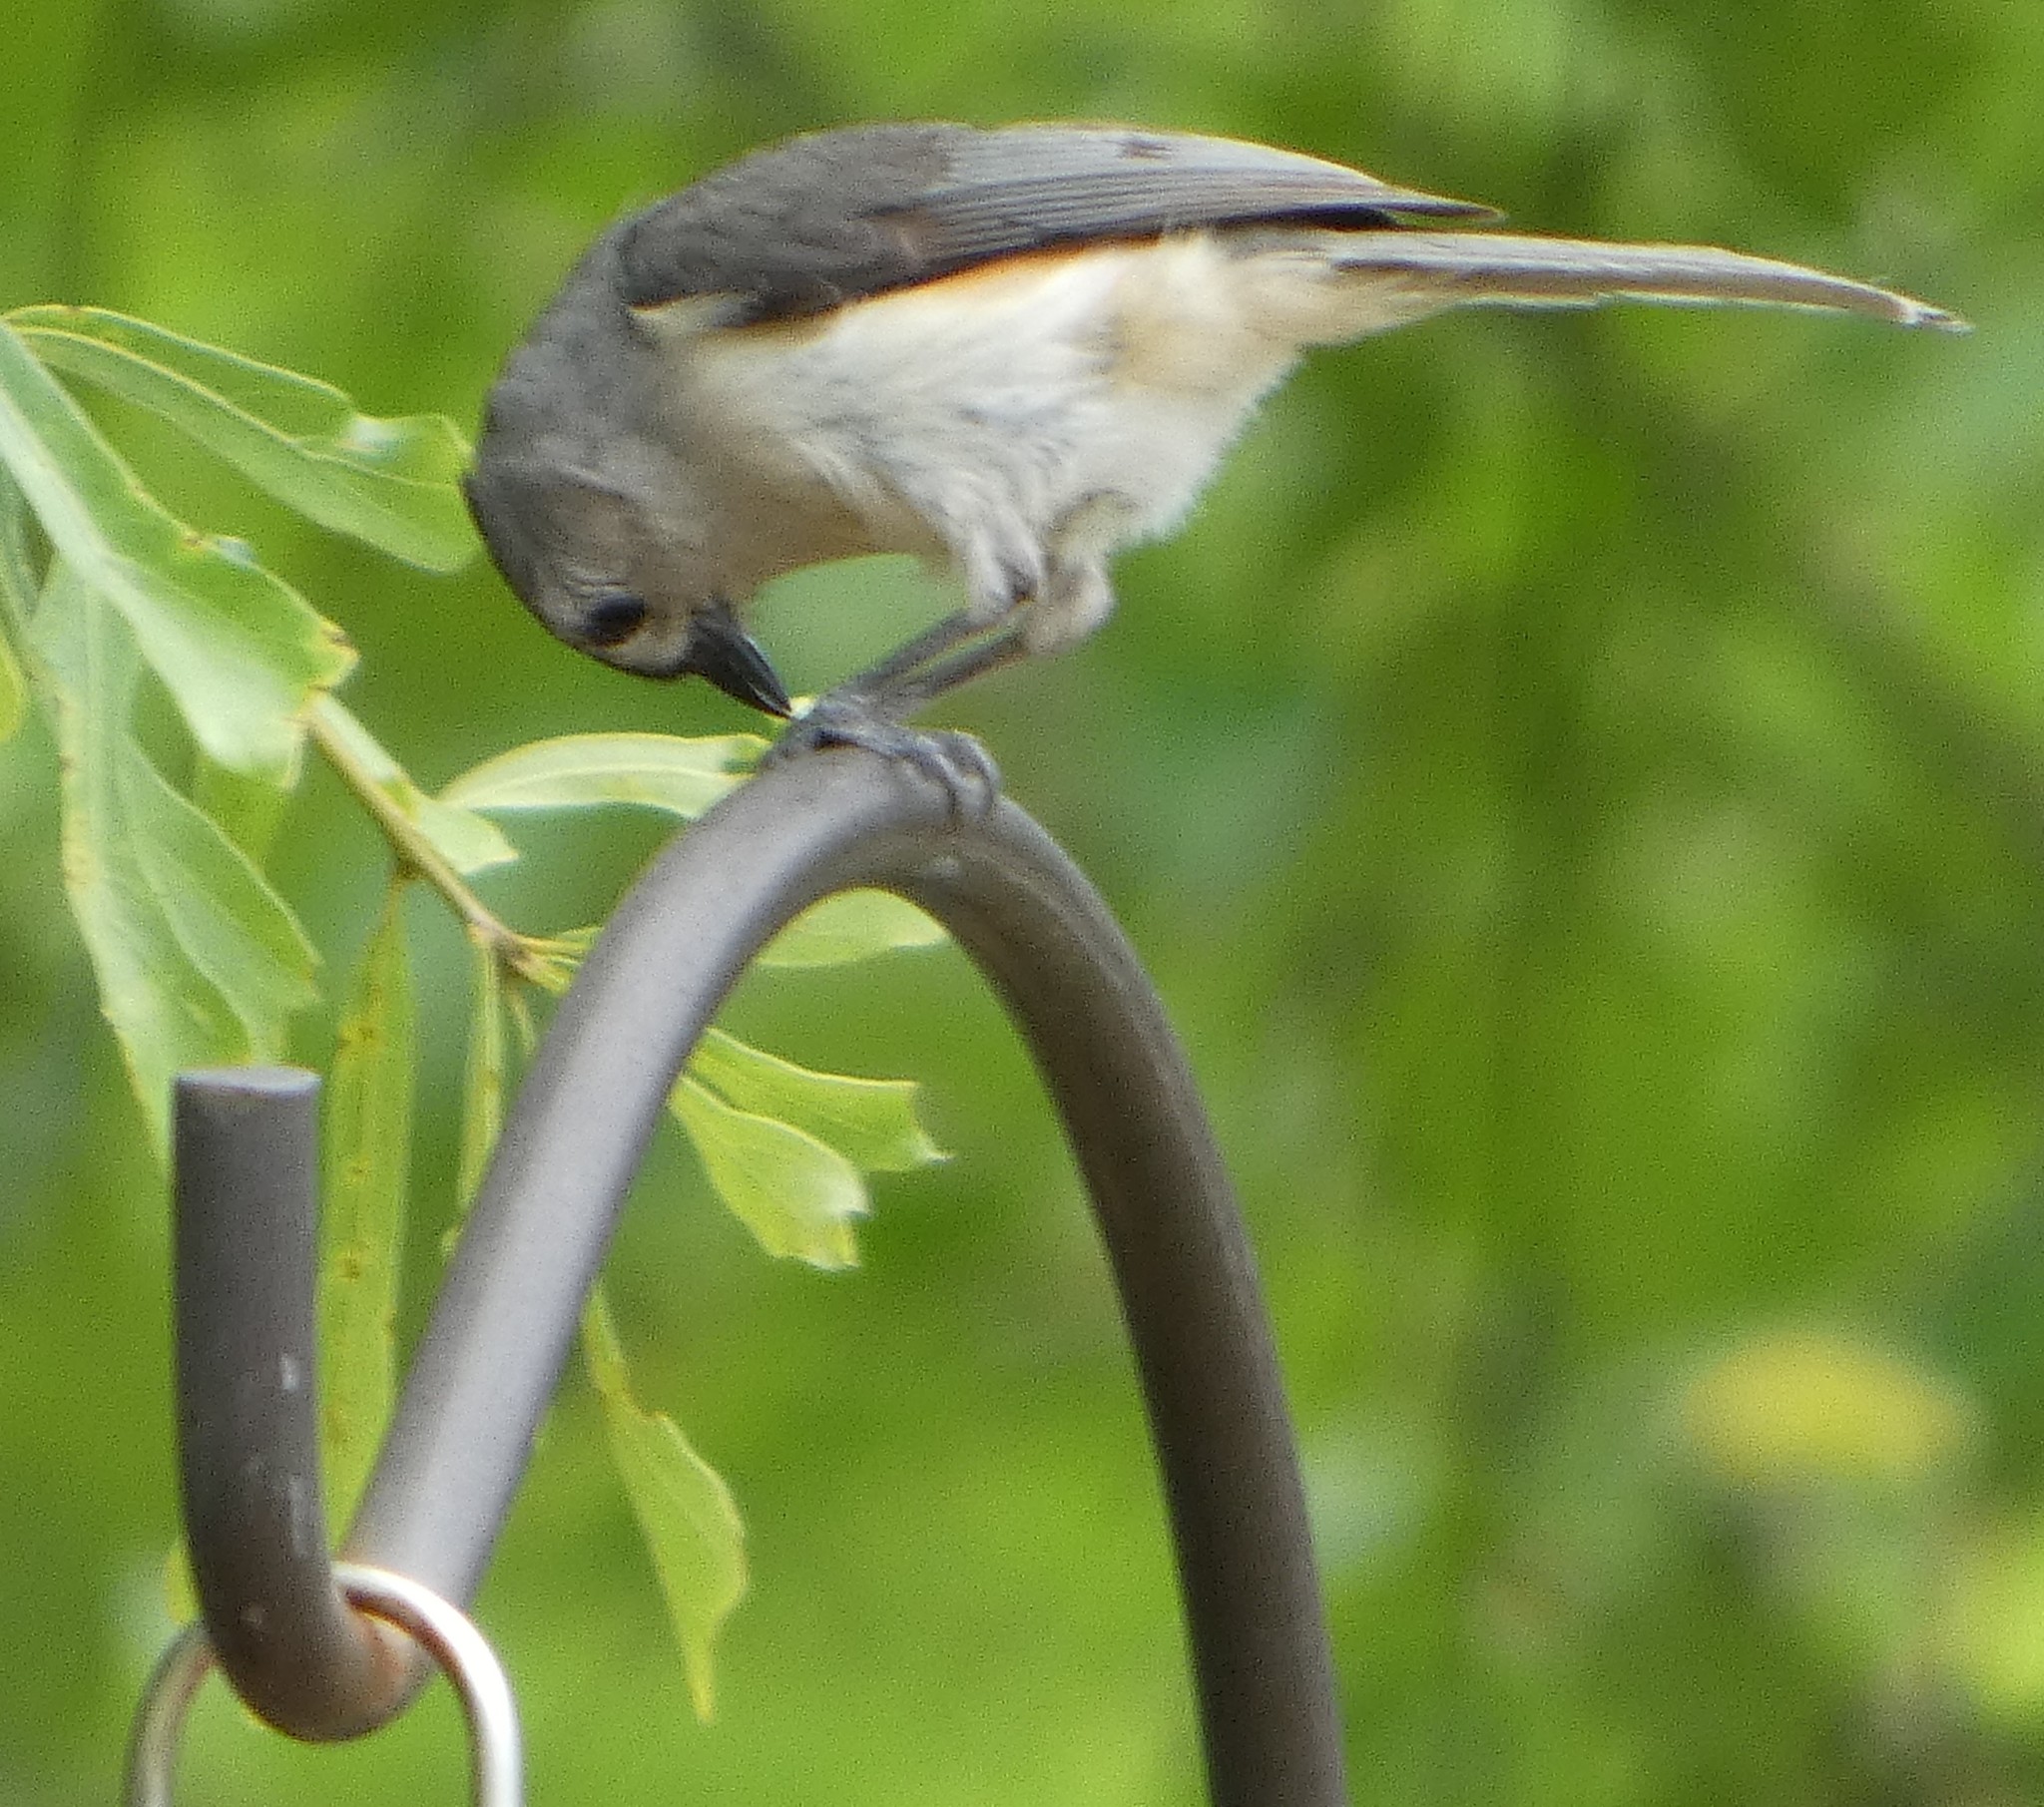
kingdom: Animalia
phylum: Chordata
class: Aves
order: Passeriformes
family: Paridae
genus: Baeolophus
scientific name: Baeolophus bicolor
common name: Tufted titmouse
